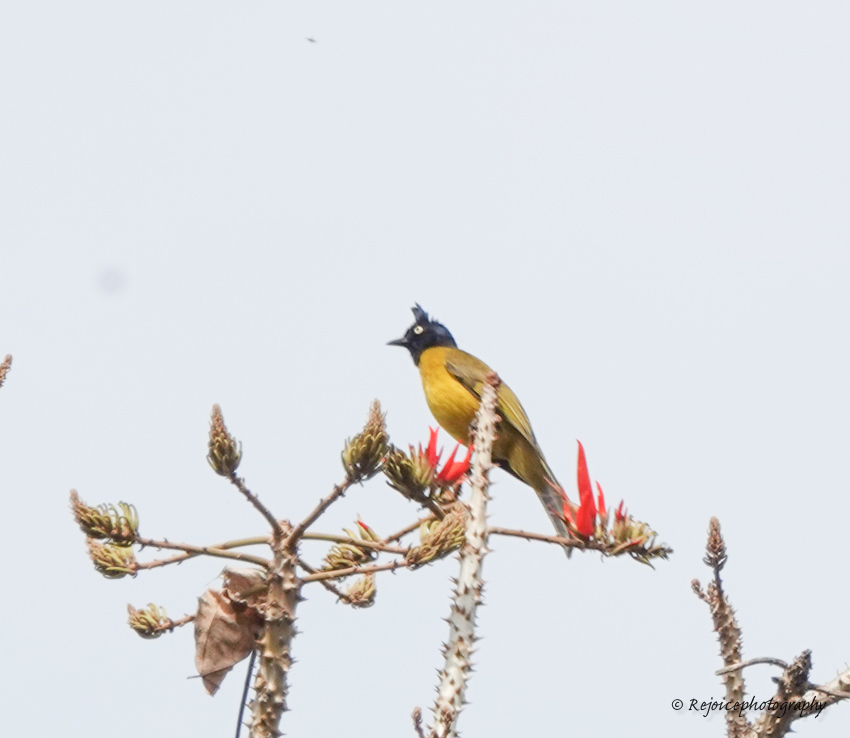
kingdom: Animalia
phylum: Chordata
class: Aves
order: Passeriformes
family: Pycnonotidae
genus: Pycnonotus
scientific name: Pycnonotus flaviventris
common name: Black-crested bulbul
